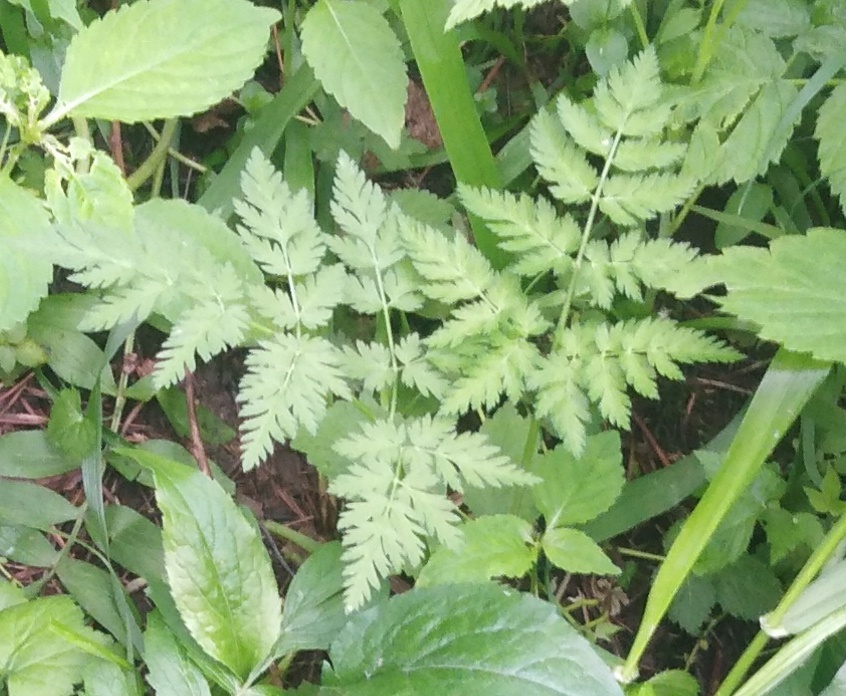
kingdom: Plantae
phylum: Tracheophyta
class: Magnoliopsida
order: Apiales
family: Apiaceae
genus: Anthriscus
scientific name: Anthriscus sylvestris
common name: Cow parsley
